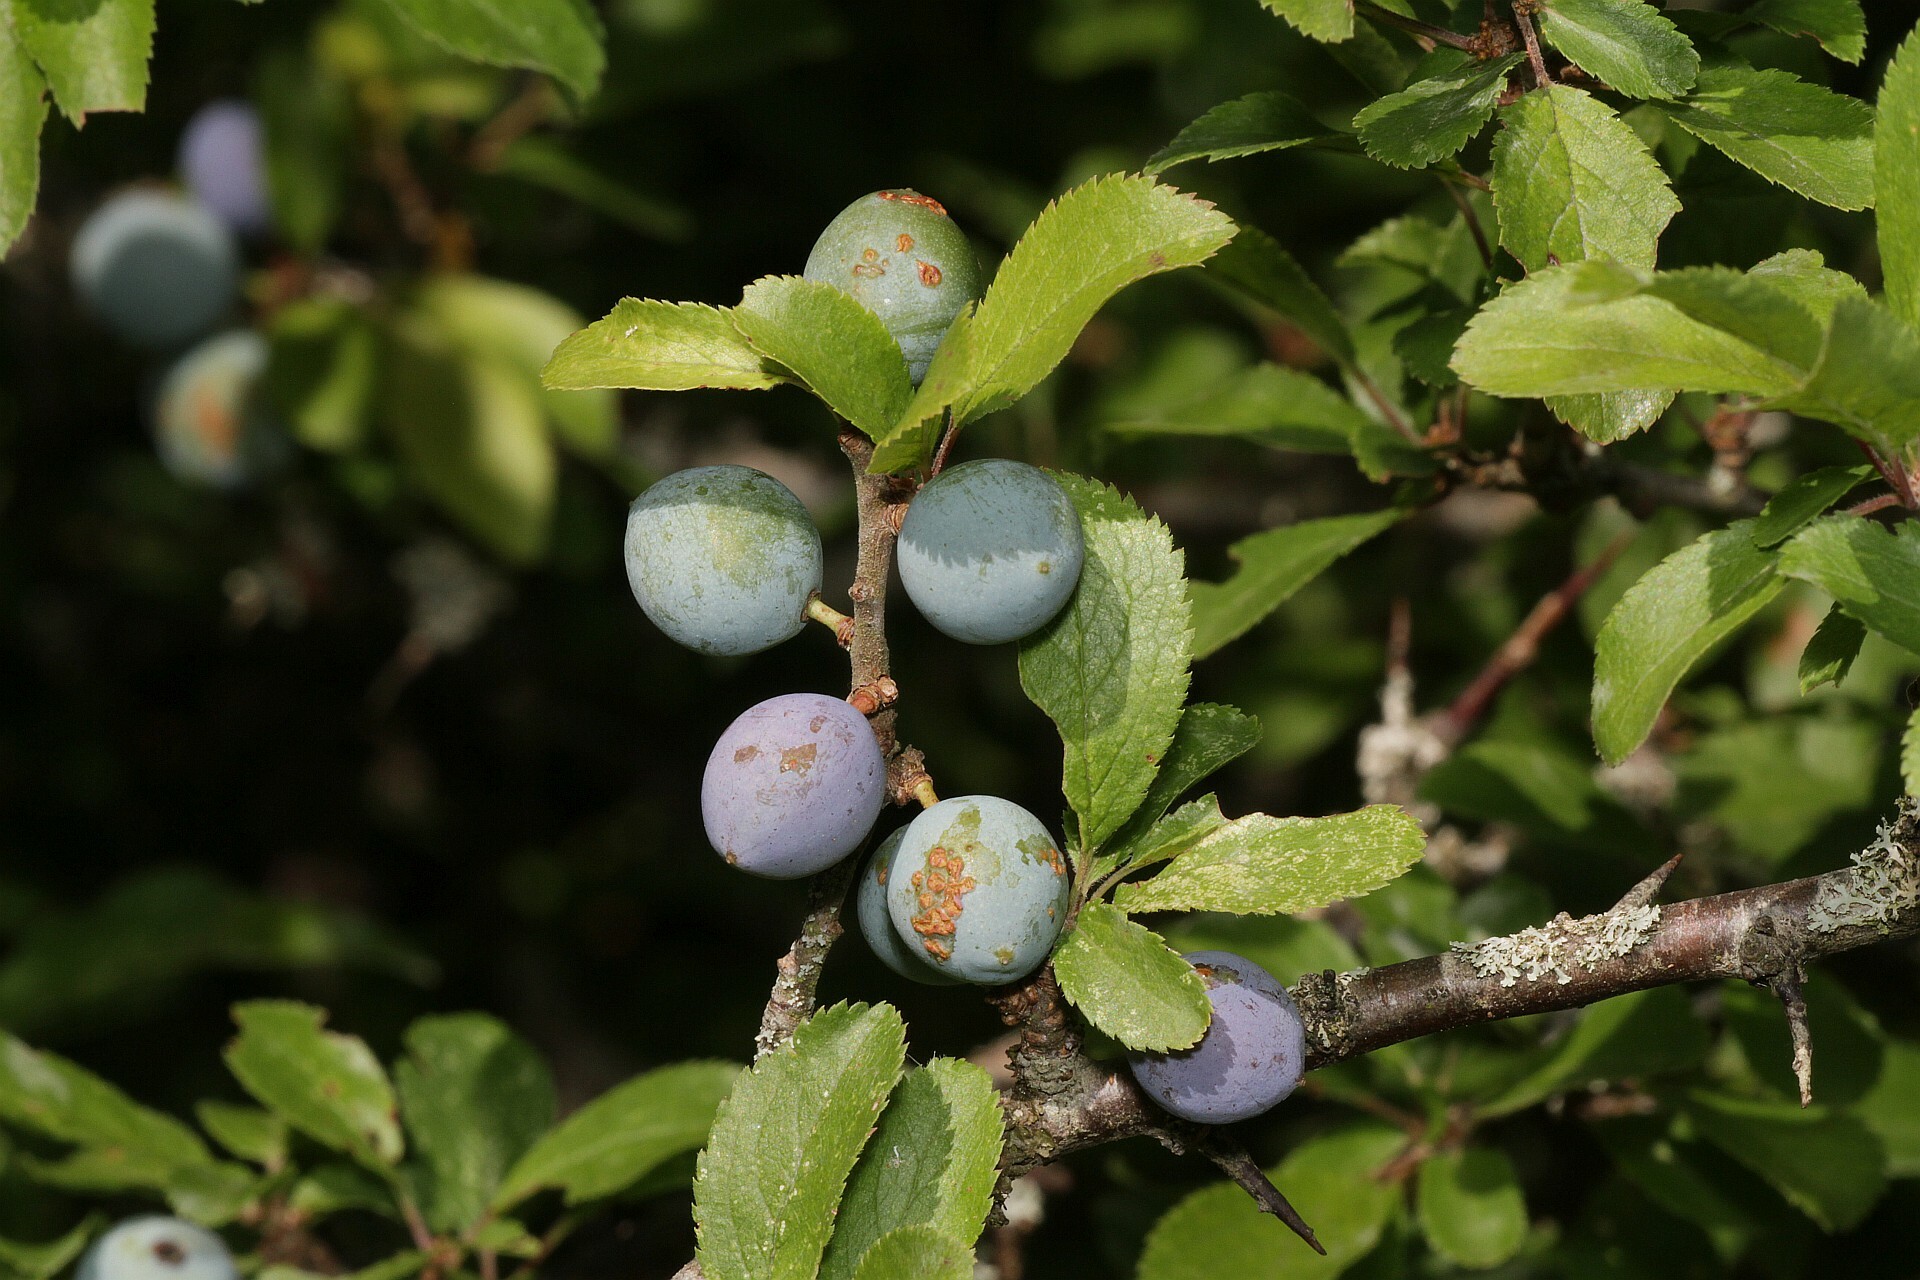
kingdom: Plantae
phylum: Tracheophyta
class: Magnoliopsida
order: Rosales
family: Rosaceae
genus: Prunus
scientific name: Prunus spinosa
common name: Blackthorn
